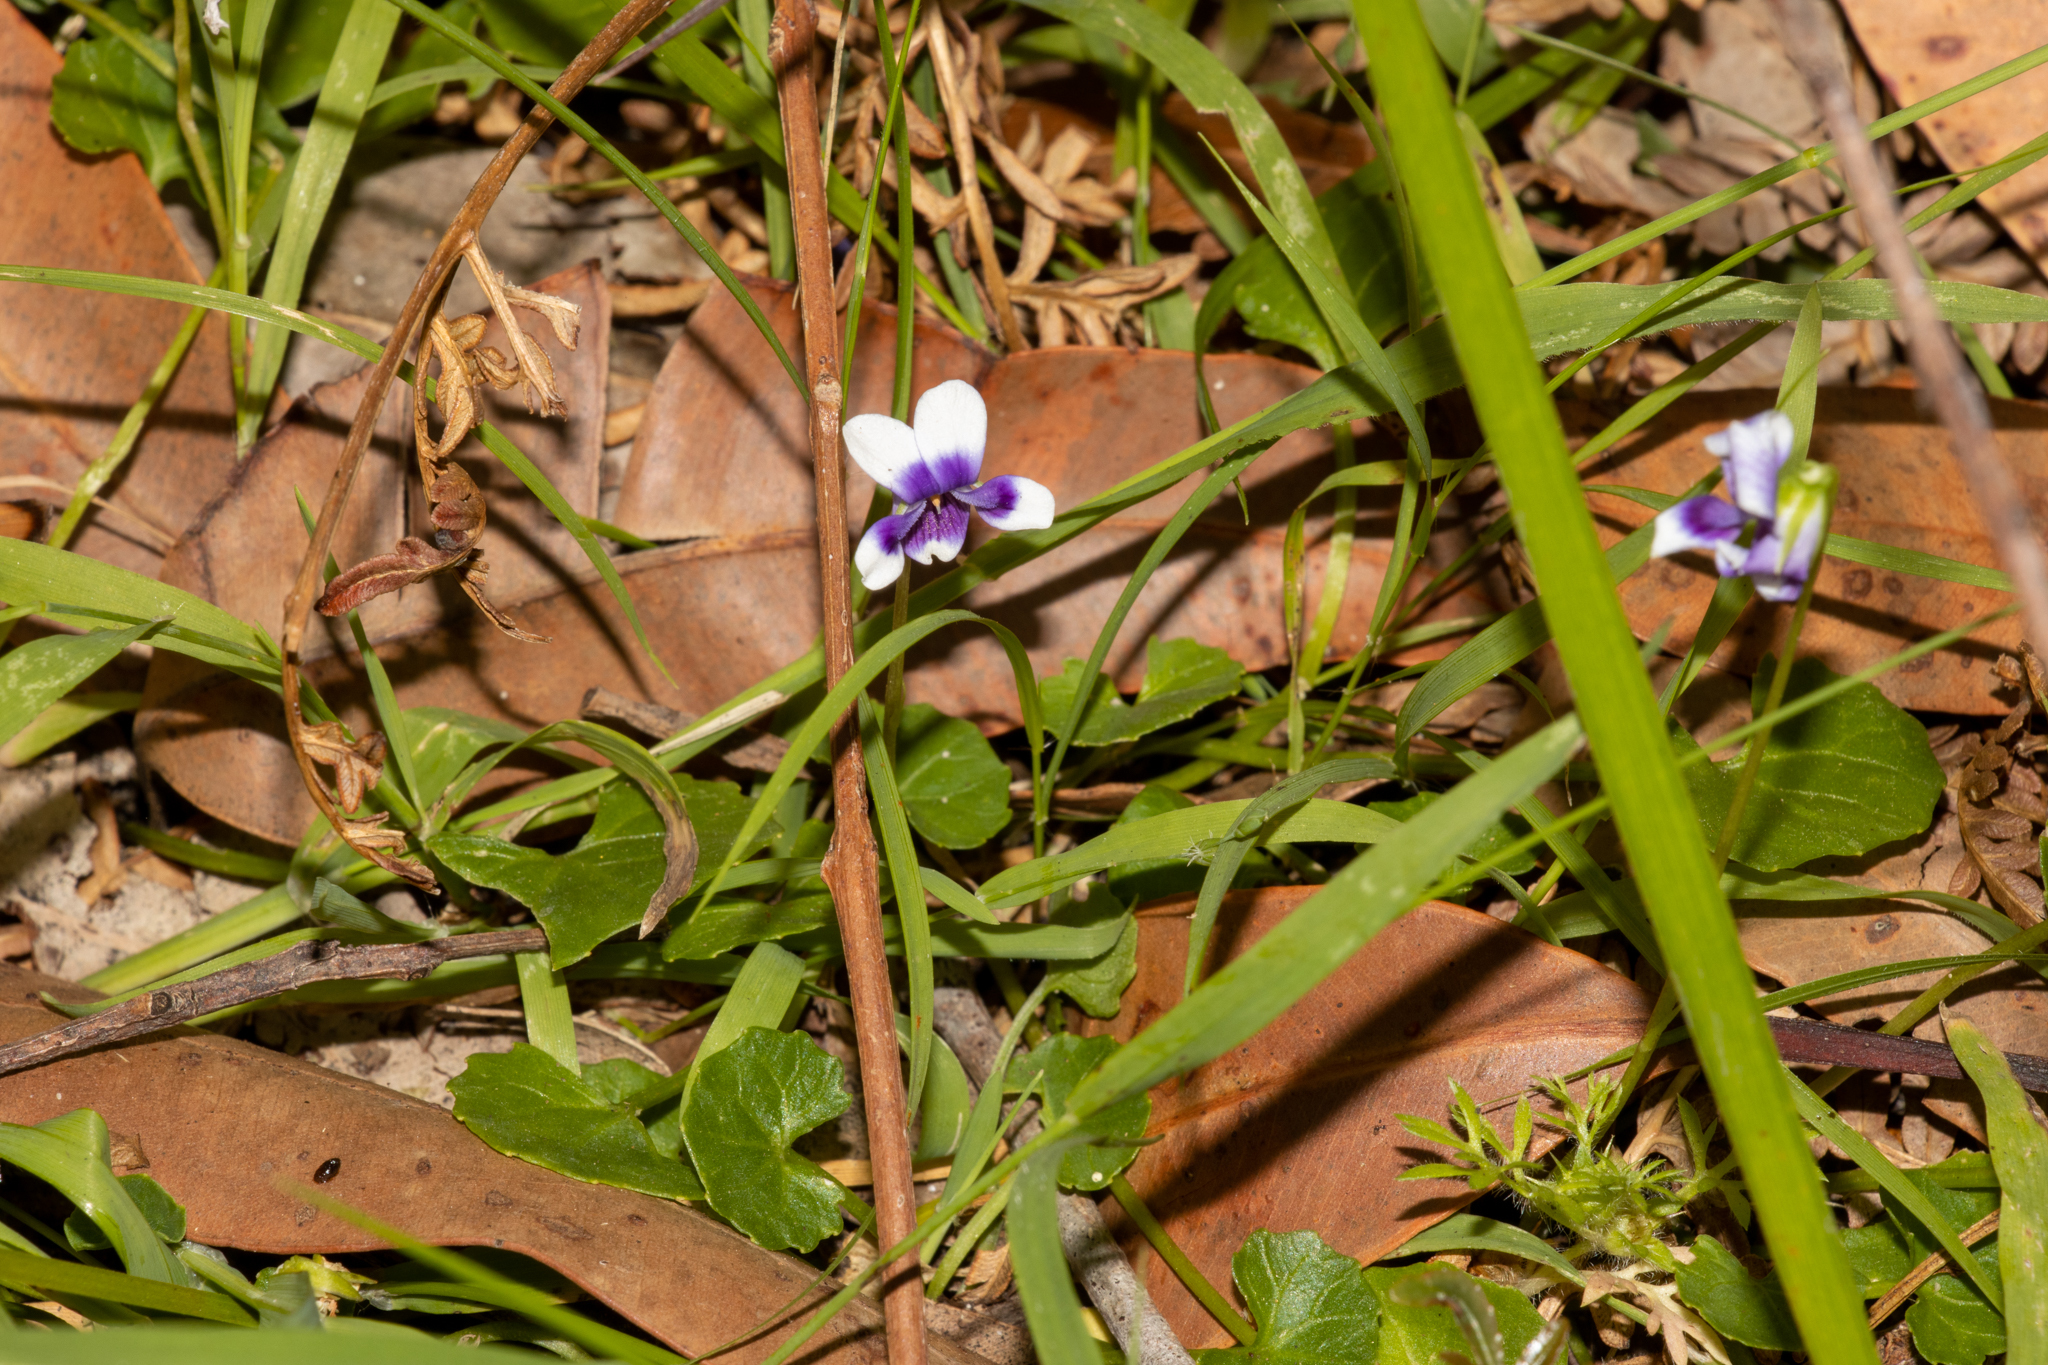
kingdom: Plantae
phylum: Tracheophyta
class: Magnoliopsida
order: Malpighiales
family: Violaceae
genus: Viola
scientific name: Viola banksii
